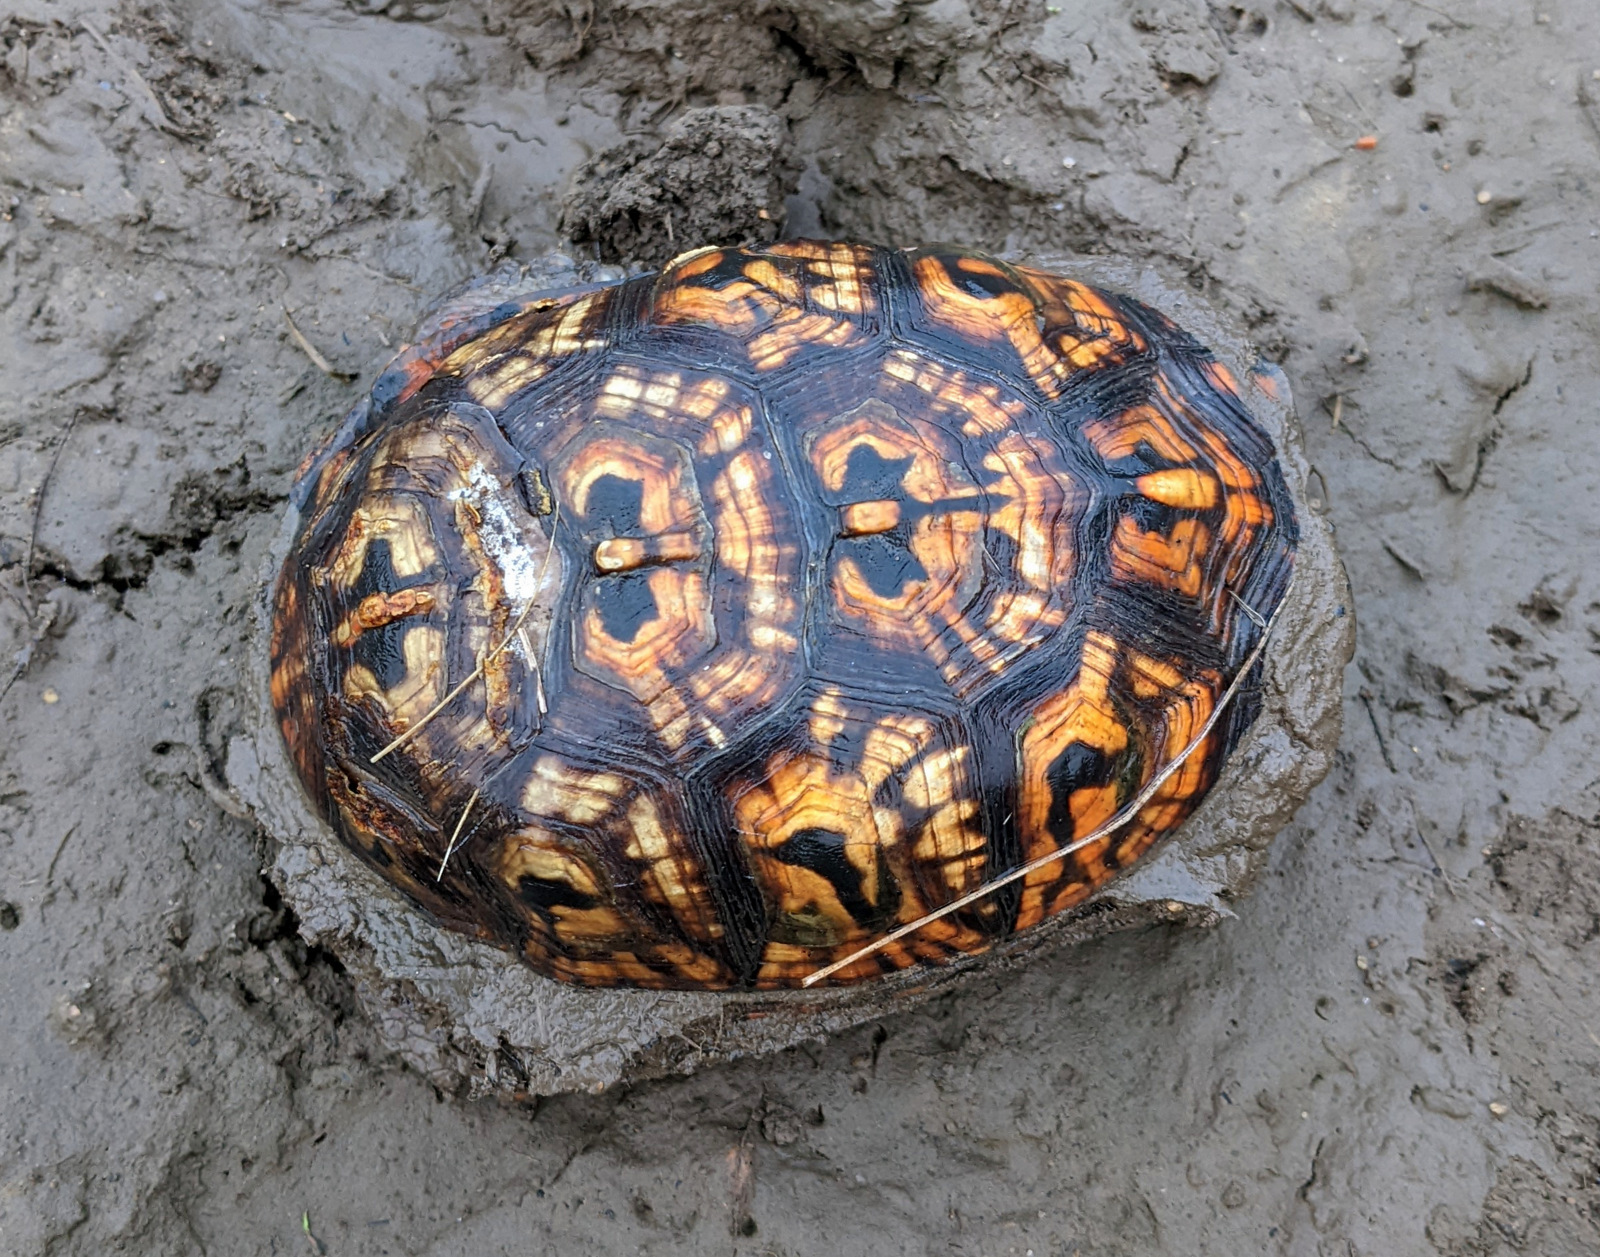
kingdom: Animalia
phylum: Chordata
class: Testudines
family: Emydidae
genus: Terrapene
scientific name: Terrapene carolina
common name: Common box turtle
